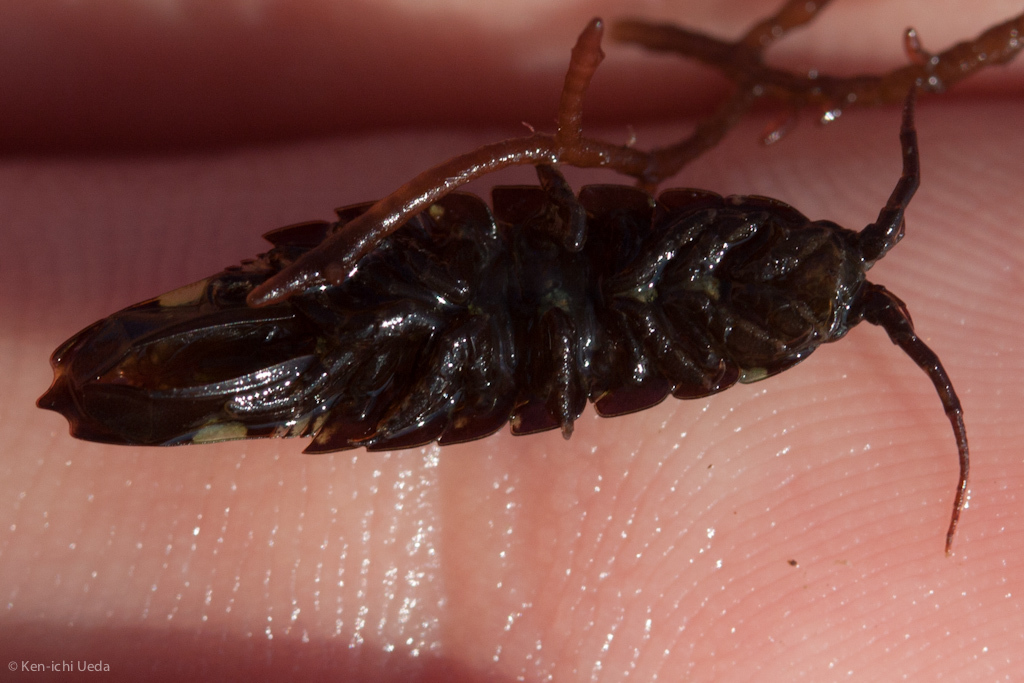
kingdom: Animalia
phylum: Arthropoda
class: Malacostraca
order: Isopoda
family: Idoteidae
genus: Idotea
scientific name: Idotea balthica
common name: Baltic isopod
